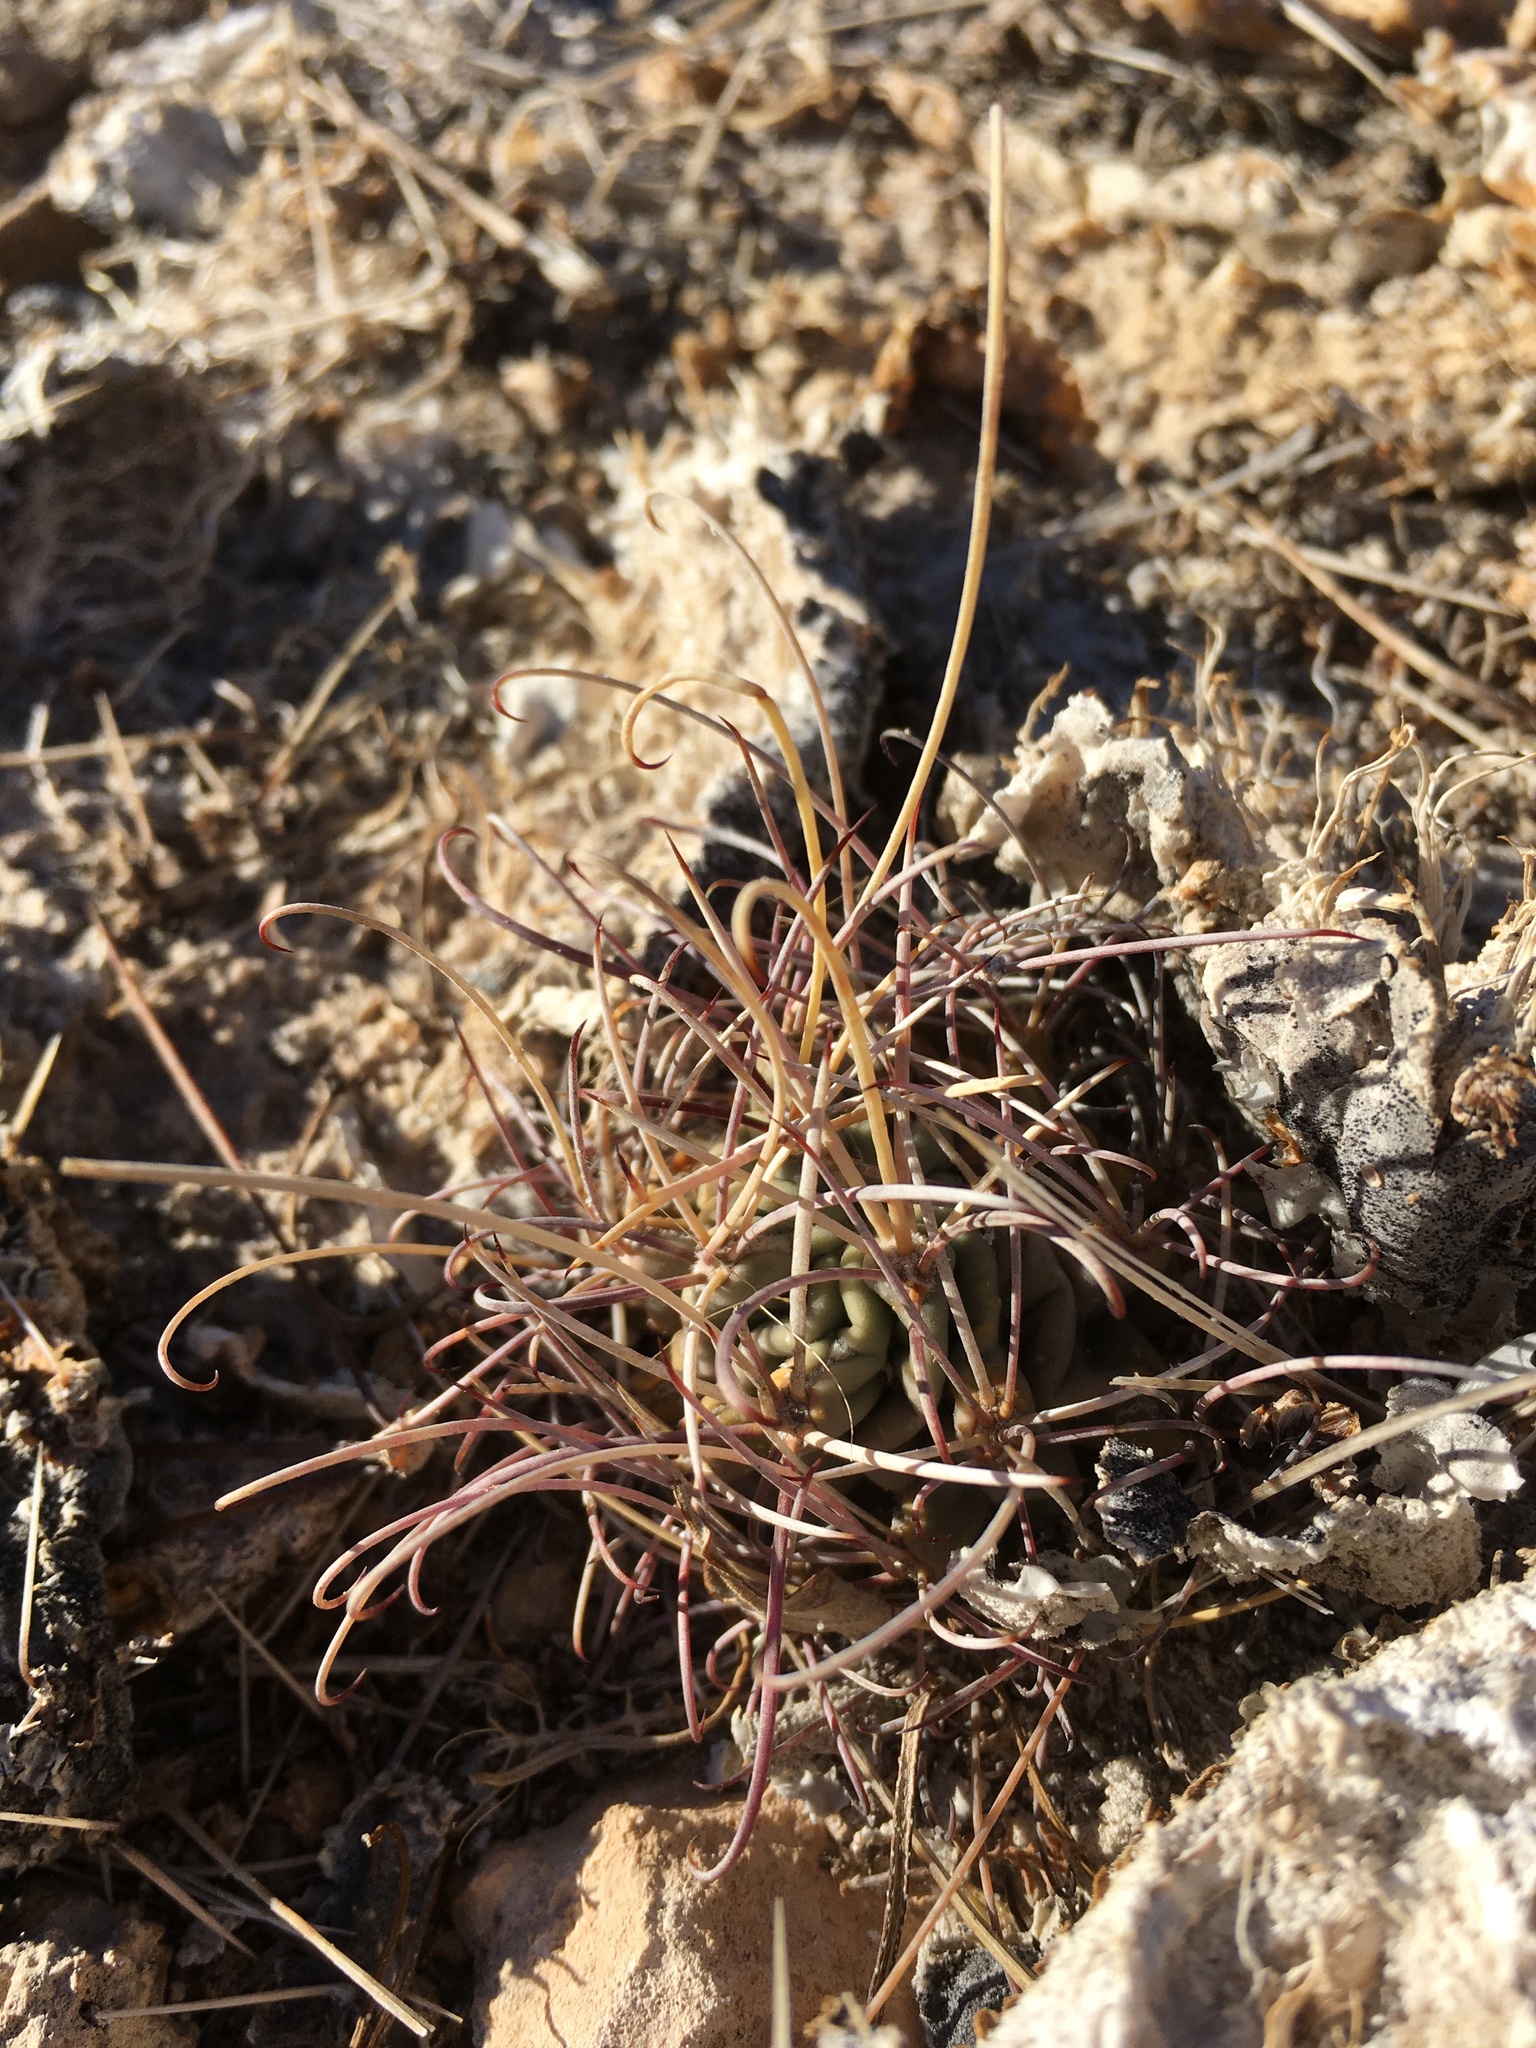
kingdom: Plantae
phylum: Tracheophyta
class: Magnoliopsida
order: Caryophyllales
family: Cactaceae
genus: Ferocactus
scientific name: Ferocactus uncinatus
